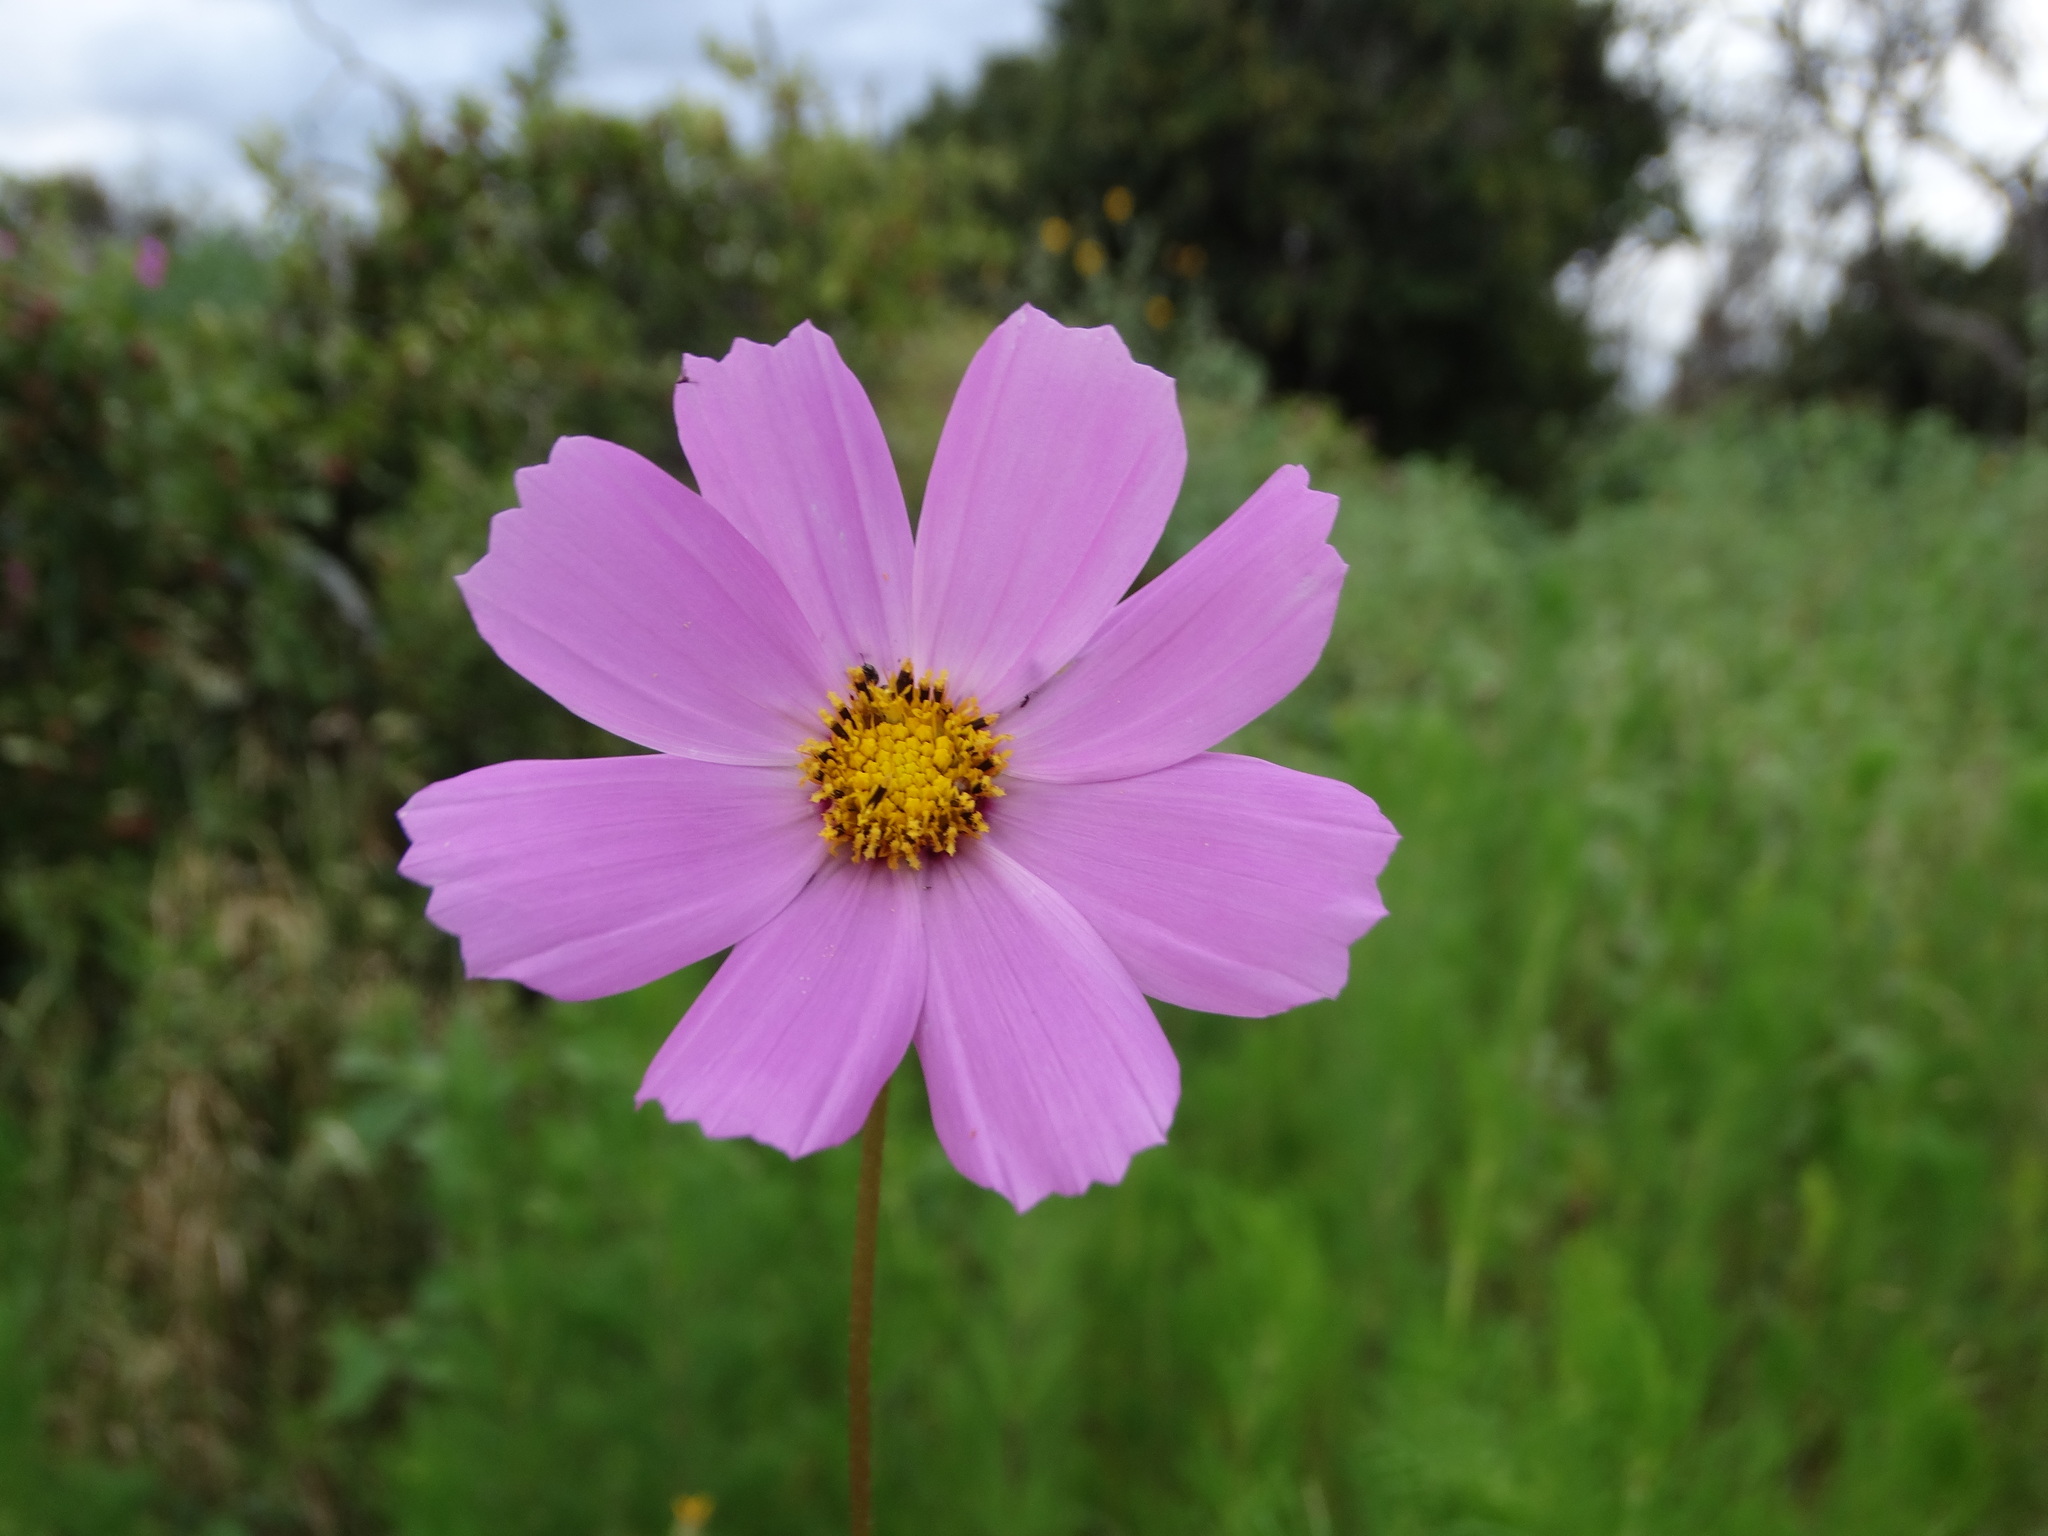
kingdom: Plantae
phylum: Tracheophyta
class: Magnoliopsida
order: Asterales
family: Asteraceae
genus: Cosmos
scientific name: Cosmos bipinnatus
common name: Garden cosmos
